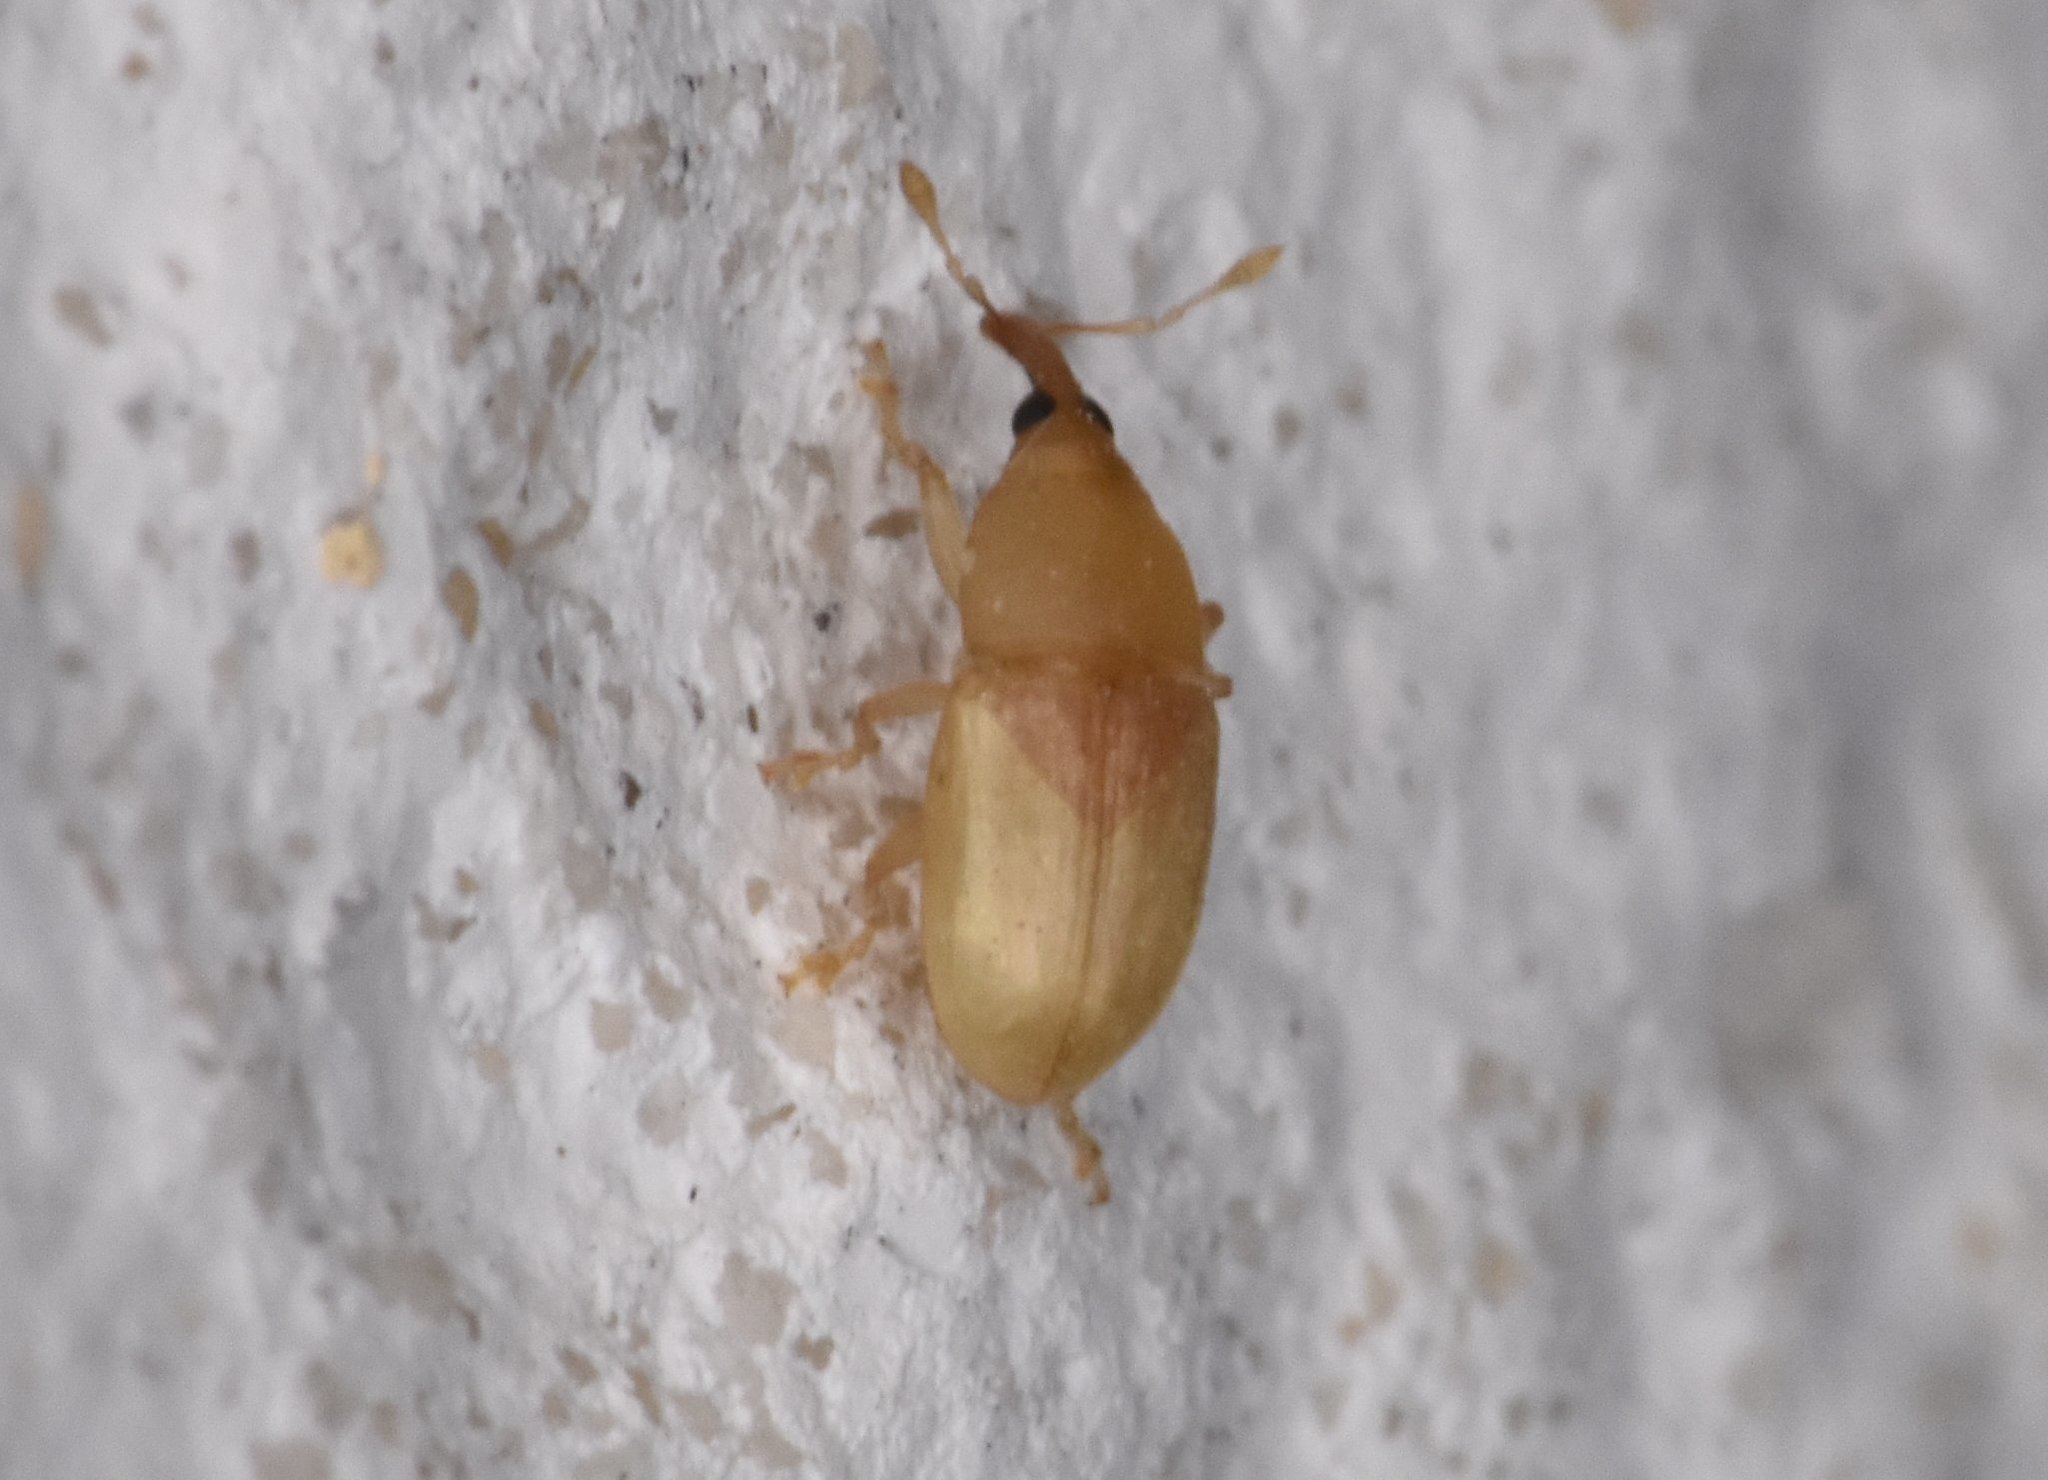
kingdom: Animalia
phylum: Arthropoda
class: Insecta
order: Coleoptera
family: Curculionidae
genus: Notolomus
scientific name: Notolomus basalis
